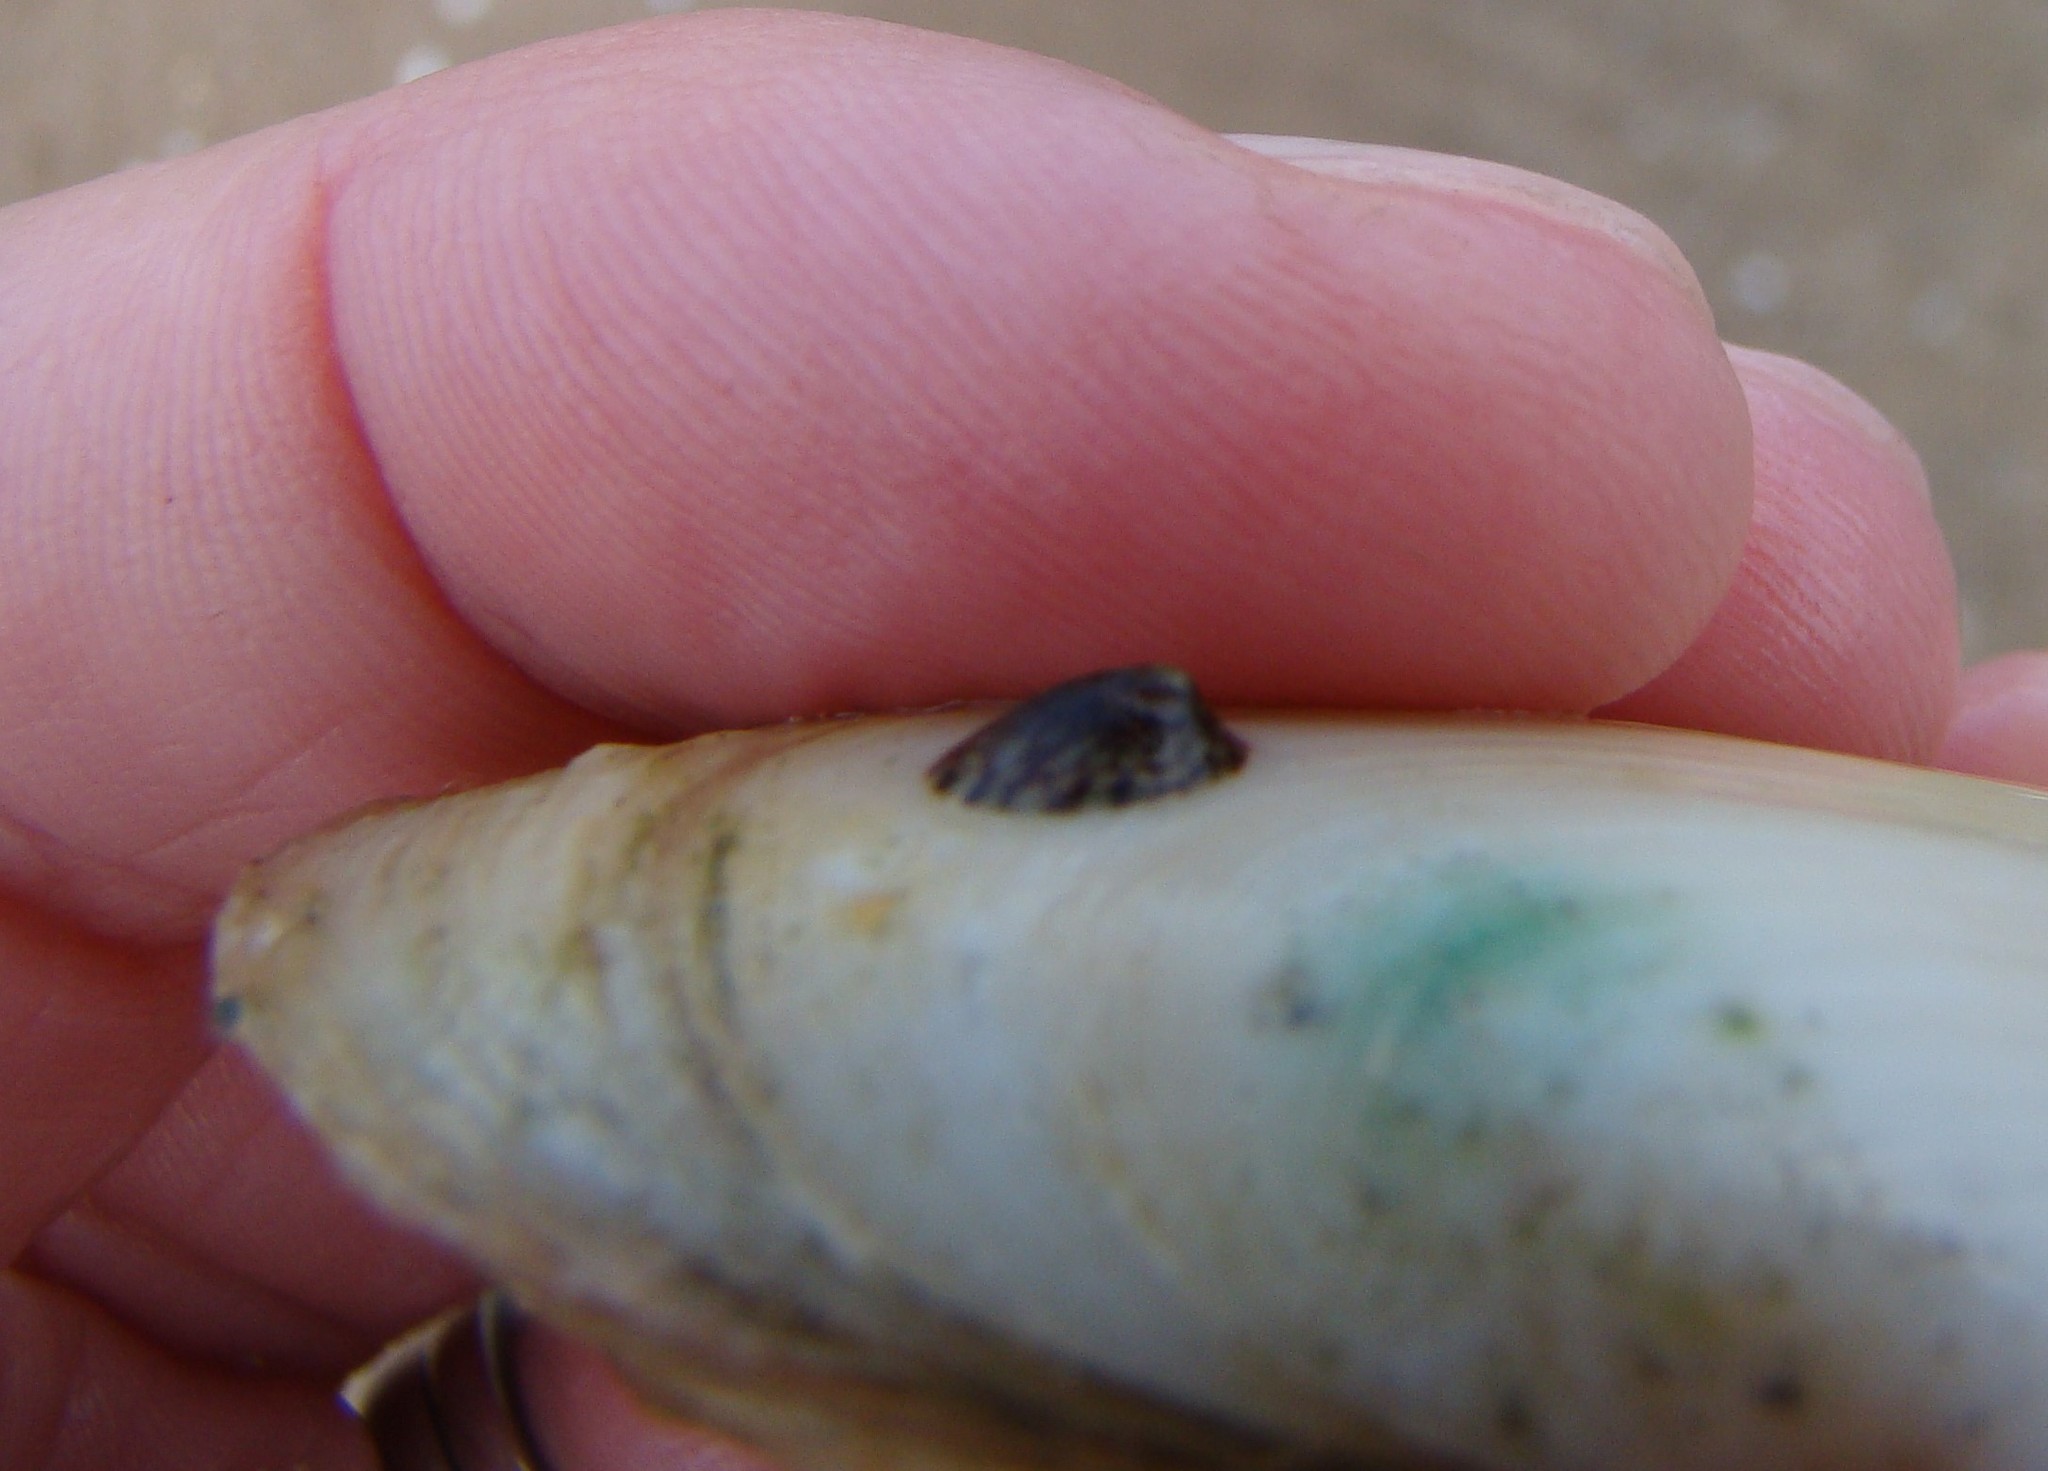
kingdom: Animalia
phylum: Mollusca
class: Gastropoda
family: Lottiidae
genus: Notoacmea
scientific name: Notoacmea
